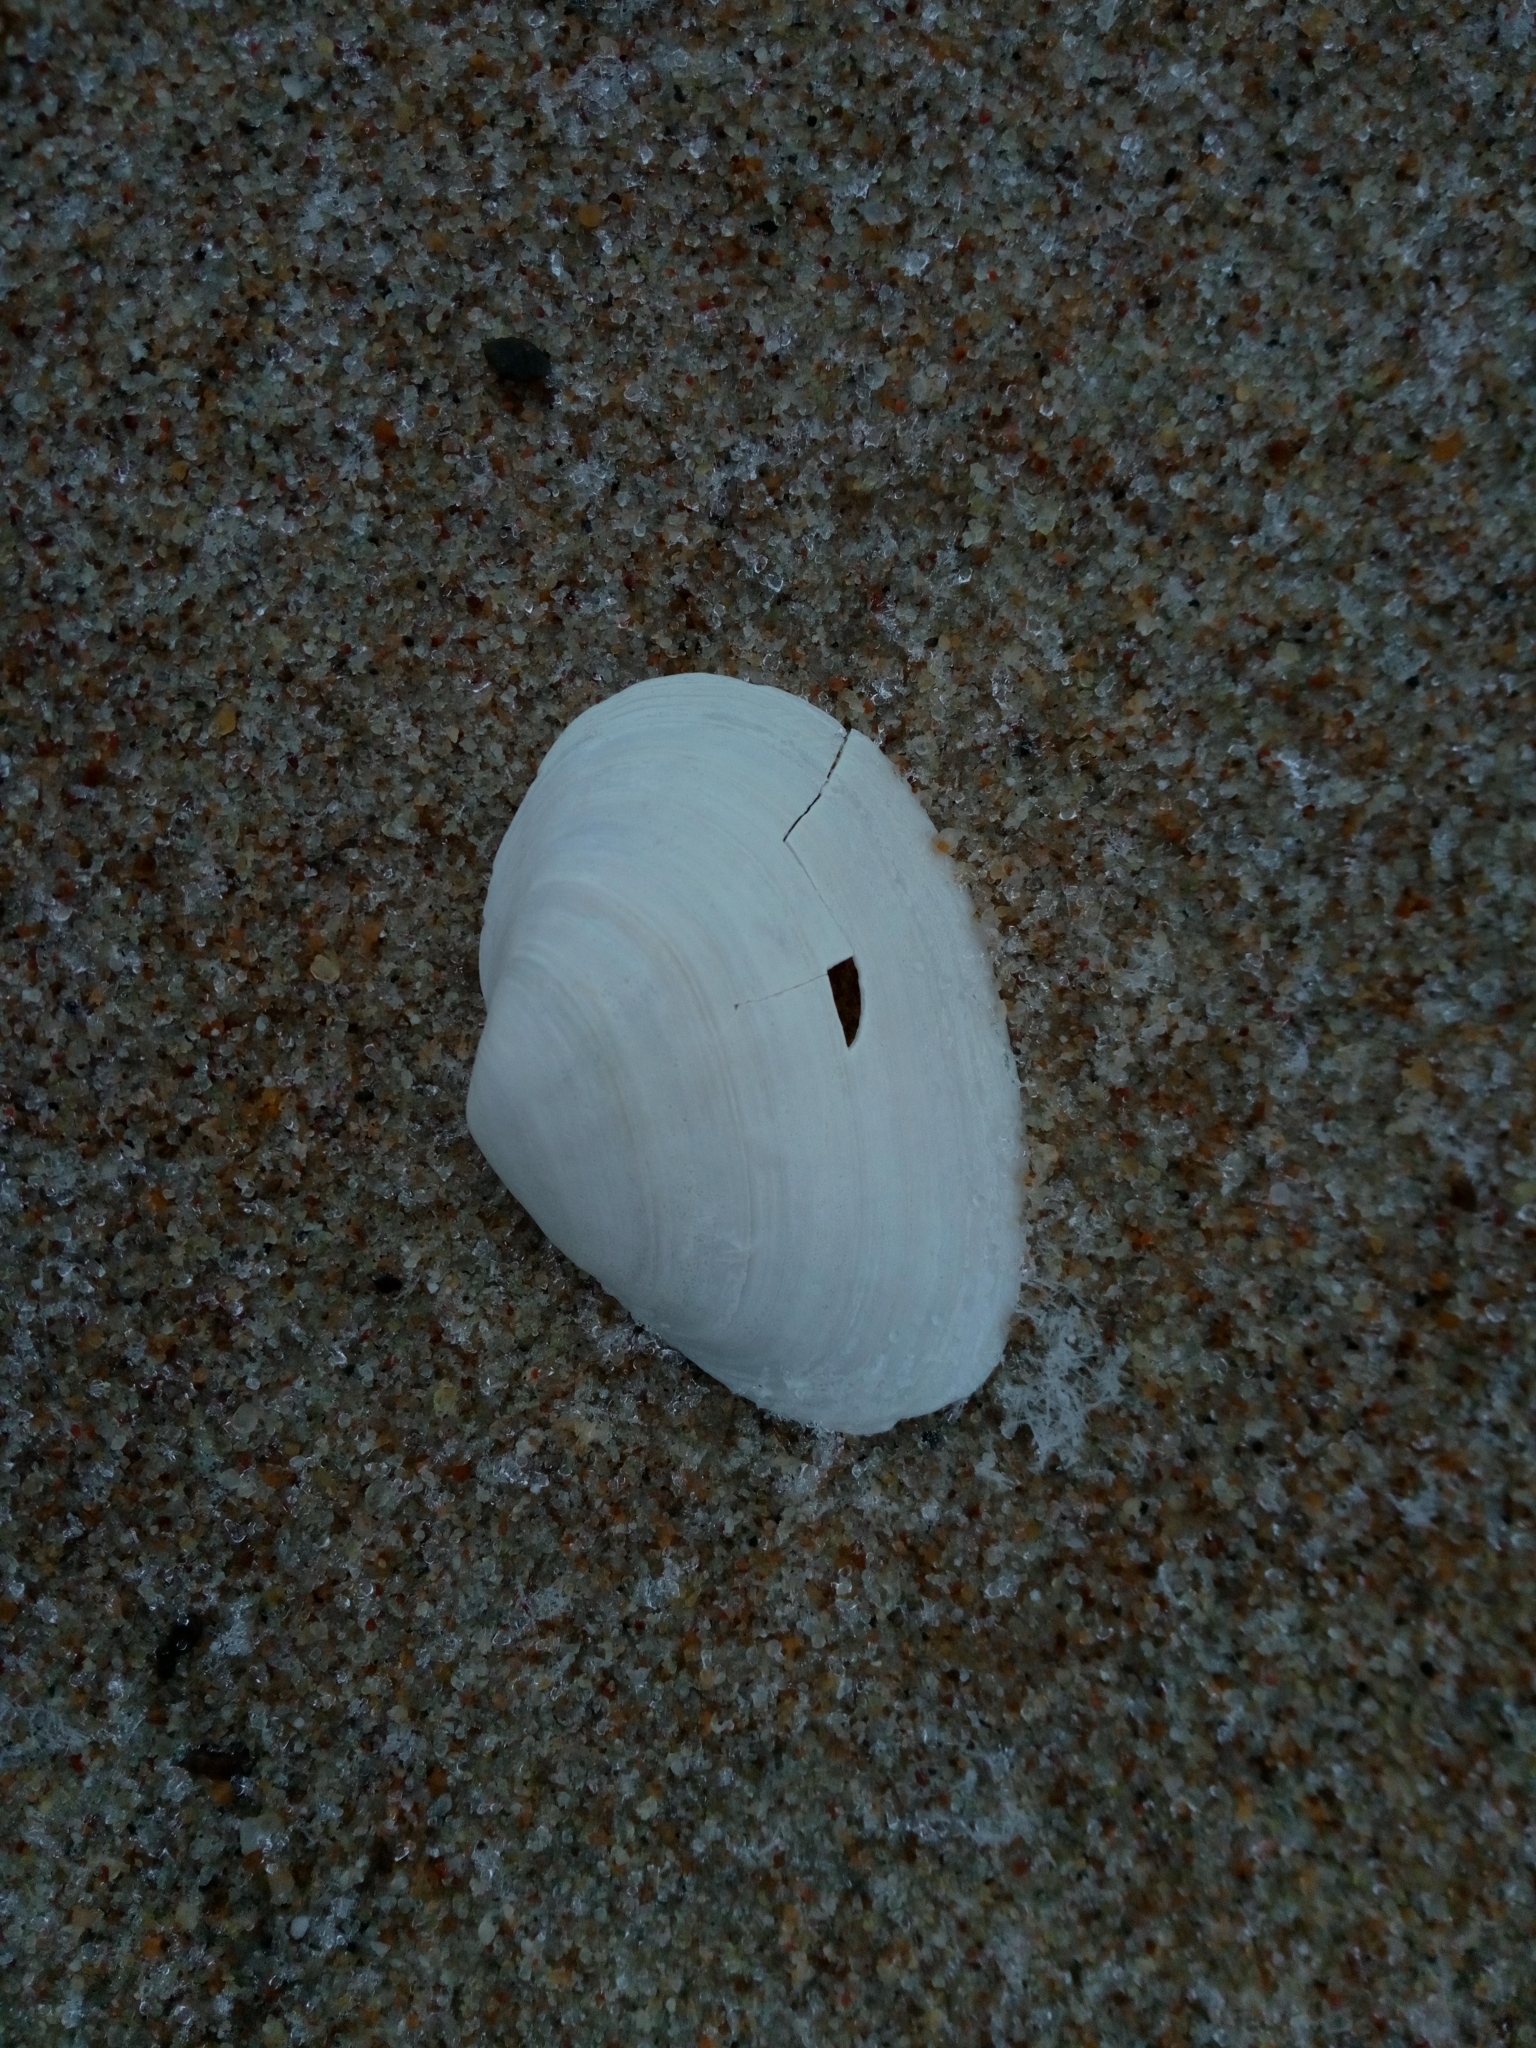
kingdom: Animalia
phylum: Mollusca
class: Bivalvia
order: Myida
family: Myidae
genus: Mya
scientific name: Mya arenaria
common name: Soft-shelled clam
